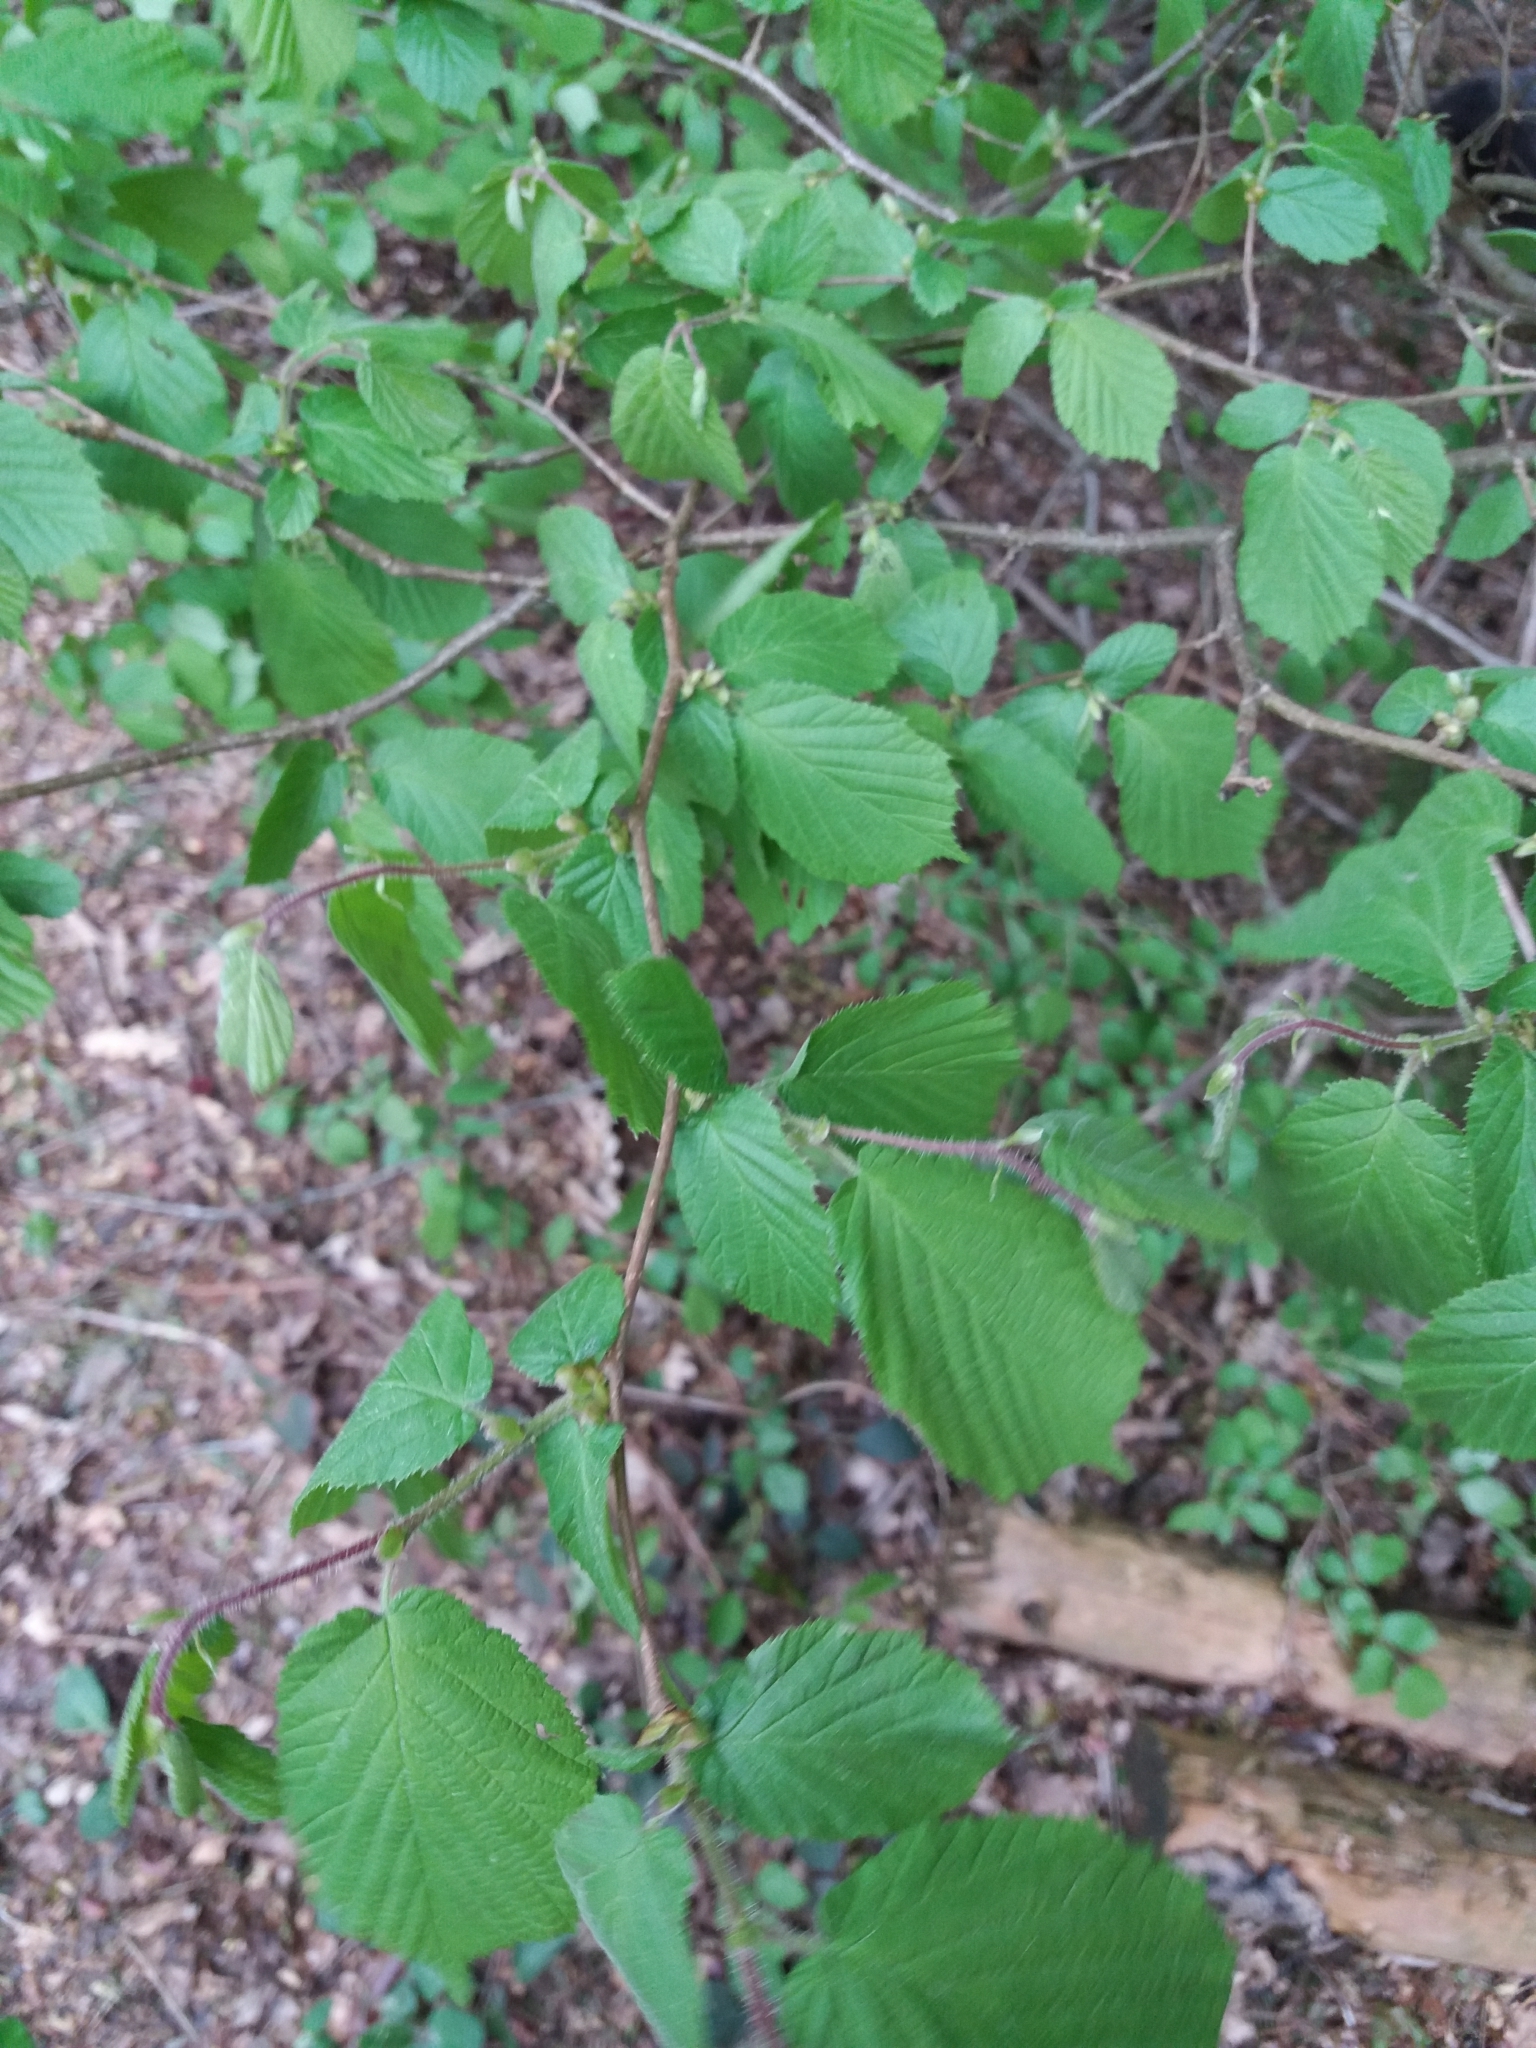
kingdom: Plantae
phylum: Tracheophyta
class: Magnoliopsida
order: Fagales
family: Betulaceae
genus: Corylus
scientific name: Corylus avellana
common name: European hazel
